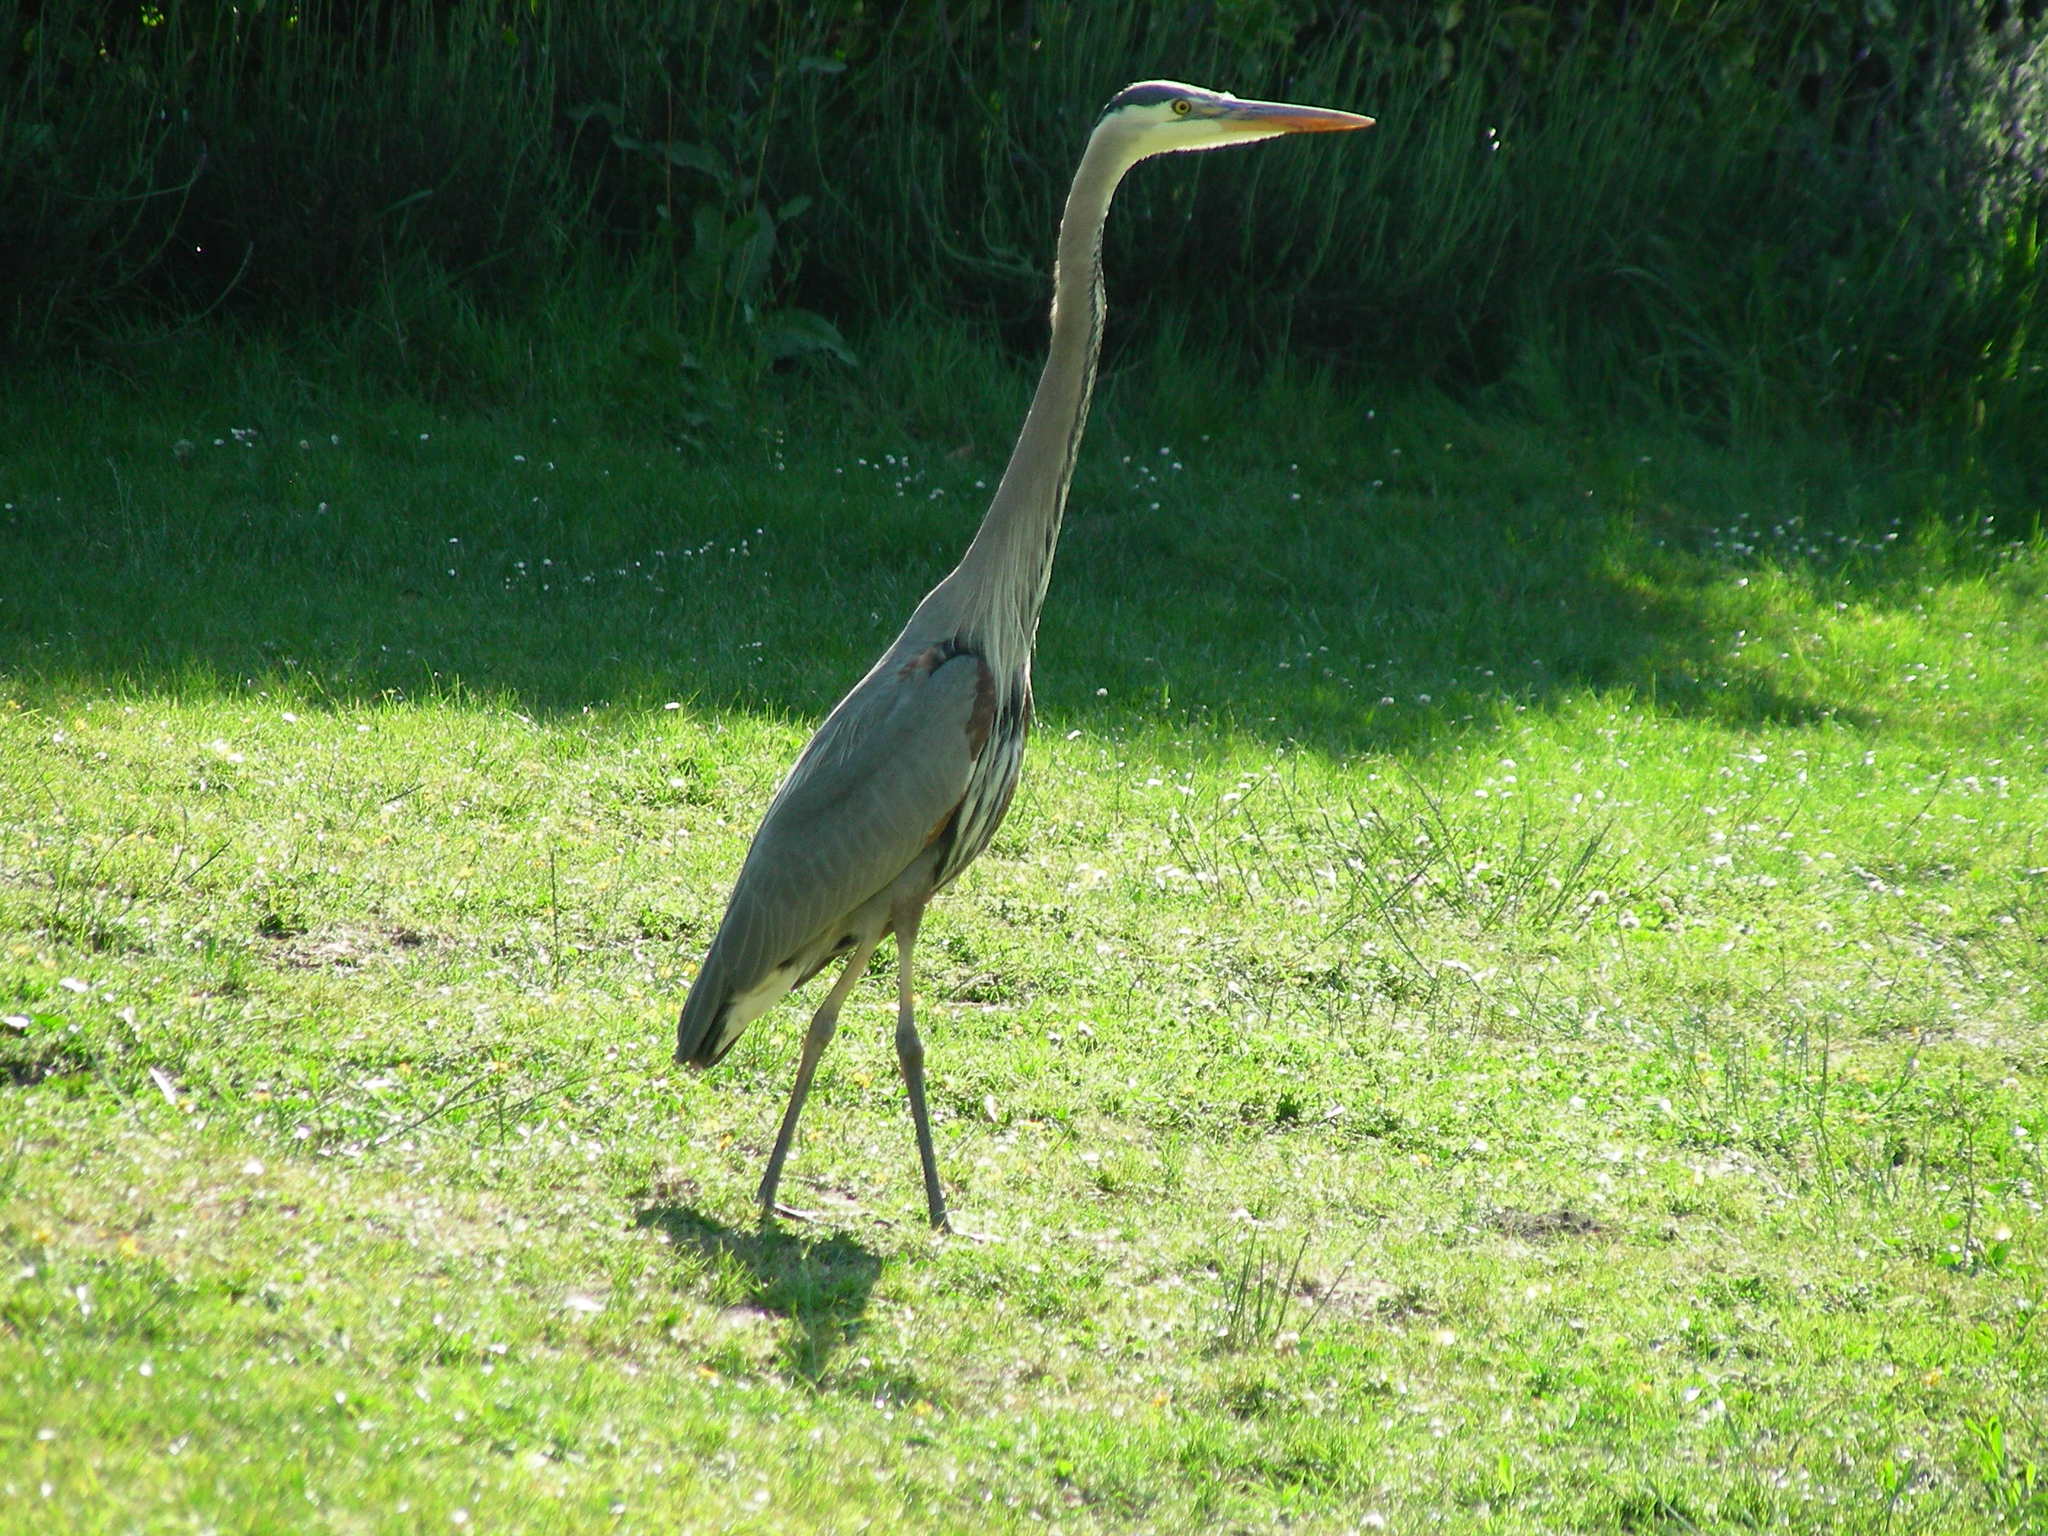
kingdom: Animalia
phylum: Chordata
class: Aves
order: Pelecaniformes
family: Ardeidae
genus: Ardea
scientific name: Ardea herodias
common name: Great blue heron
